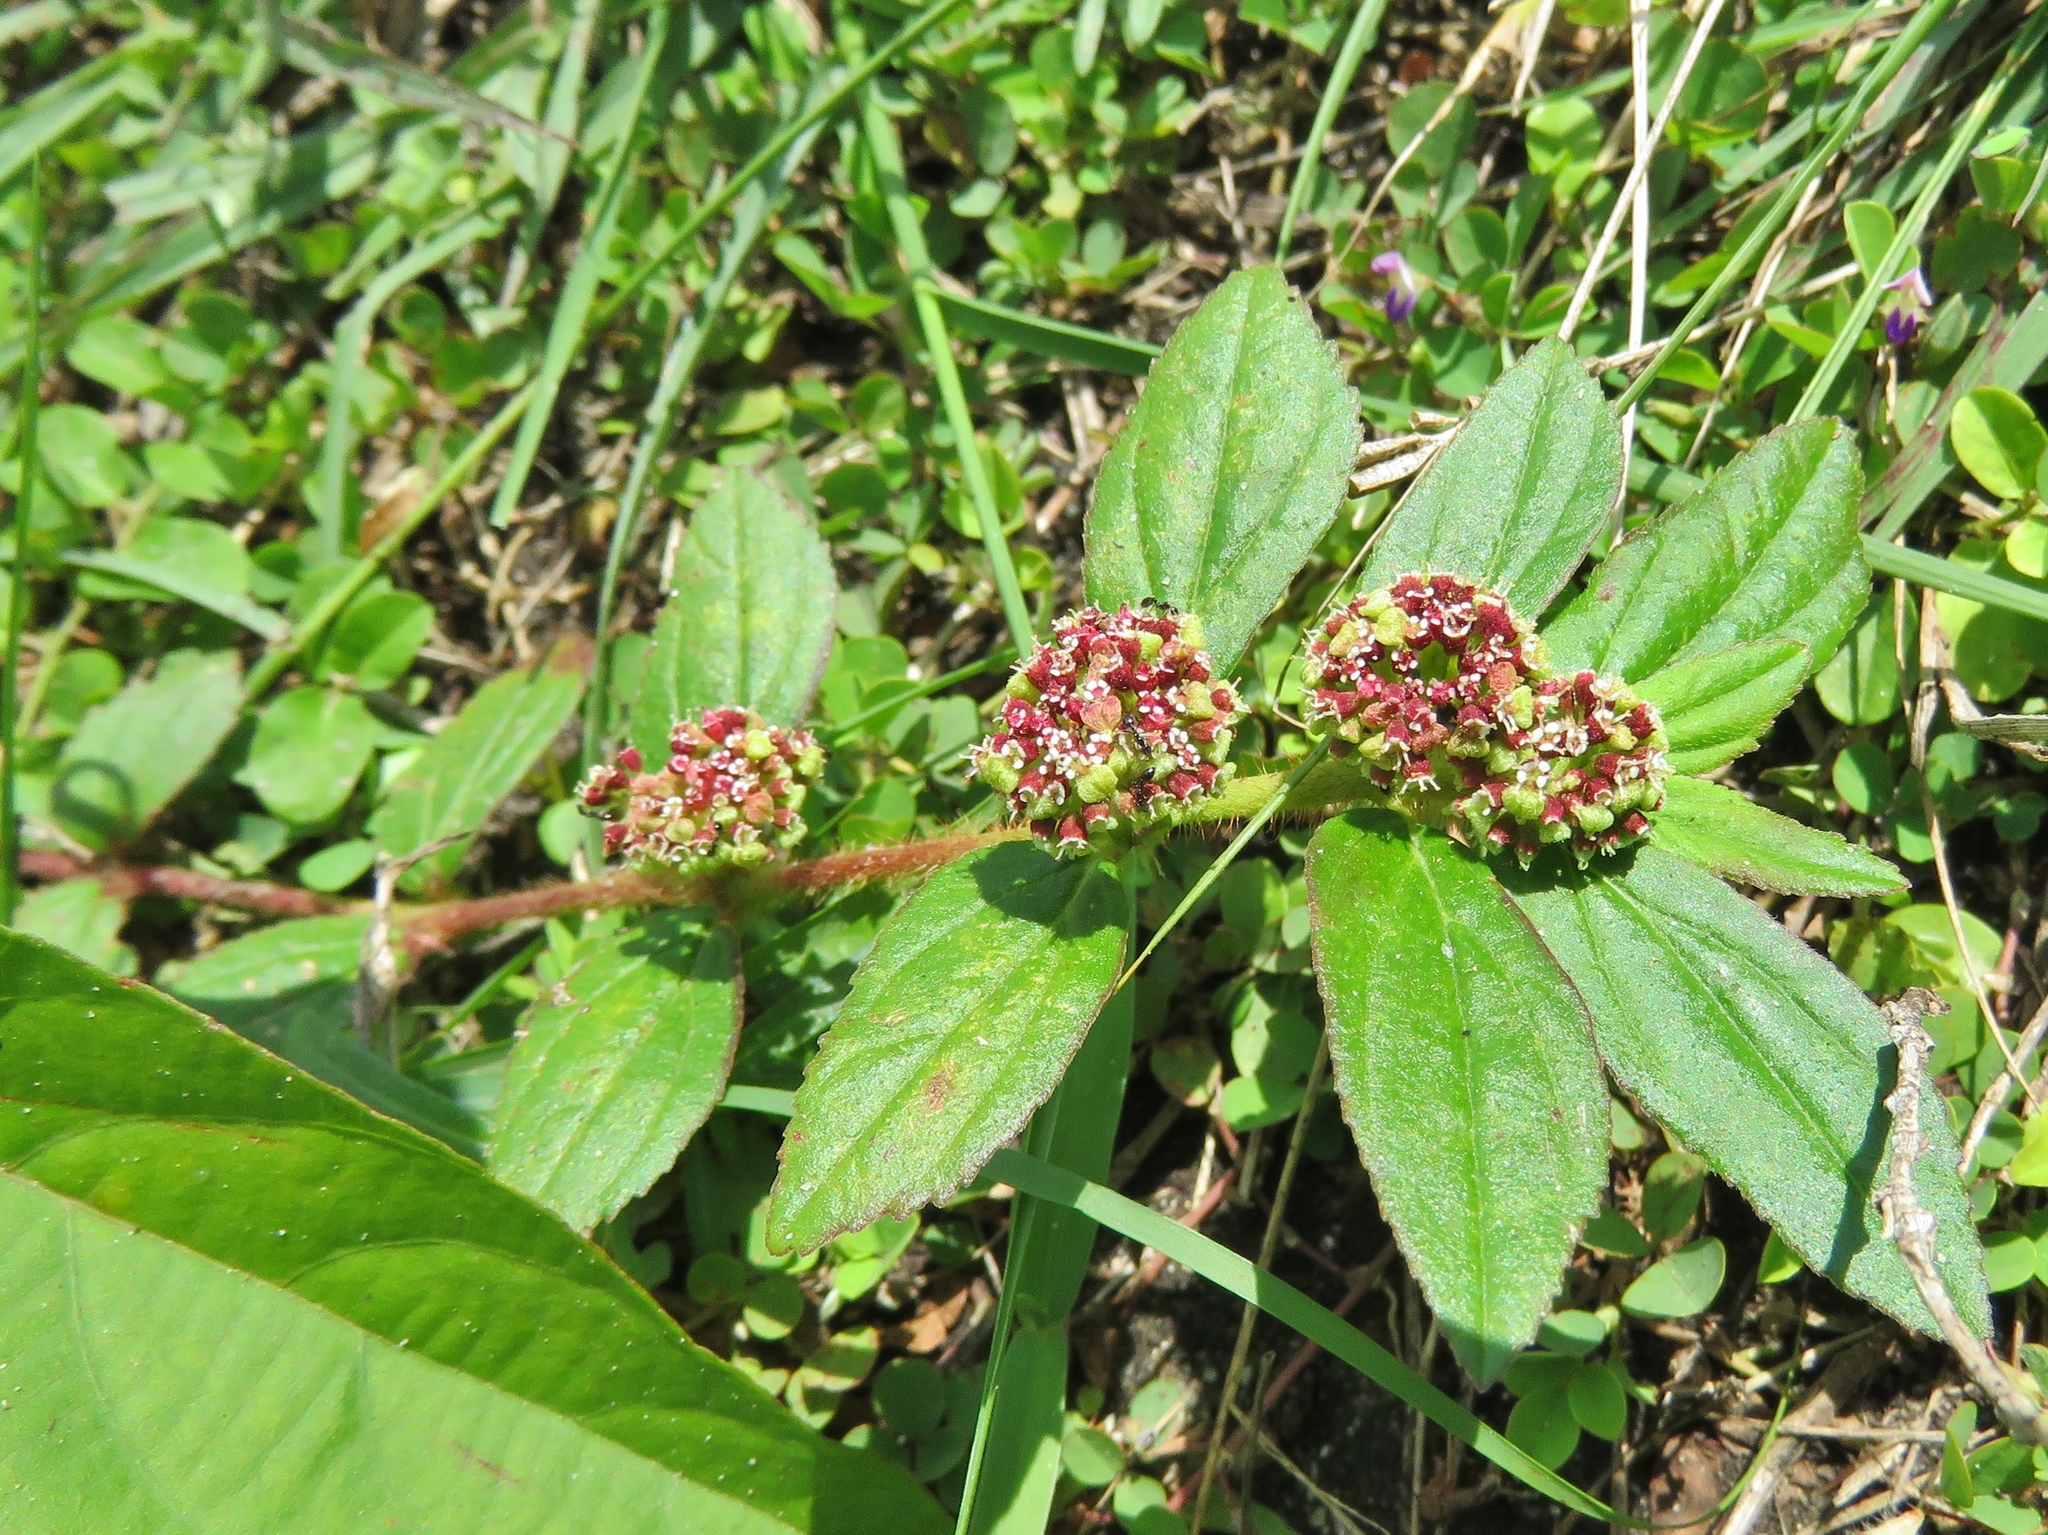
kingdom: Plantae
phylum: Tracheophyta
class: Magnoliopsida
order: Malpighiales
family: Euphorbiaceae
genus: Euphorbia
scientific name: Euphorbia hirta
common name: Pillpod sandmat
